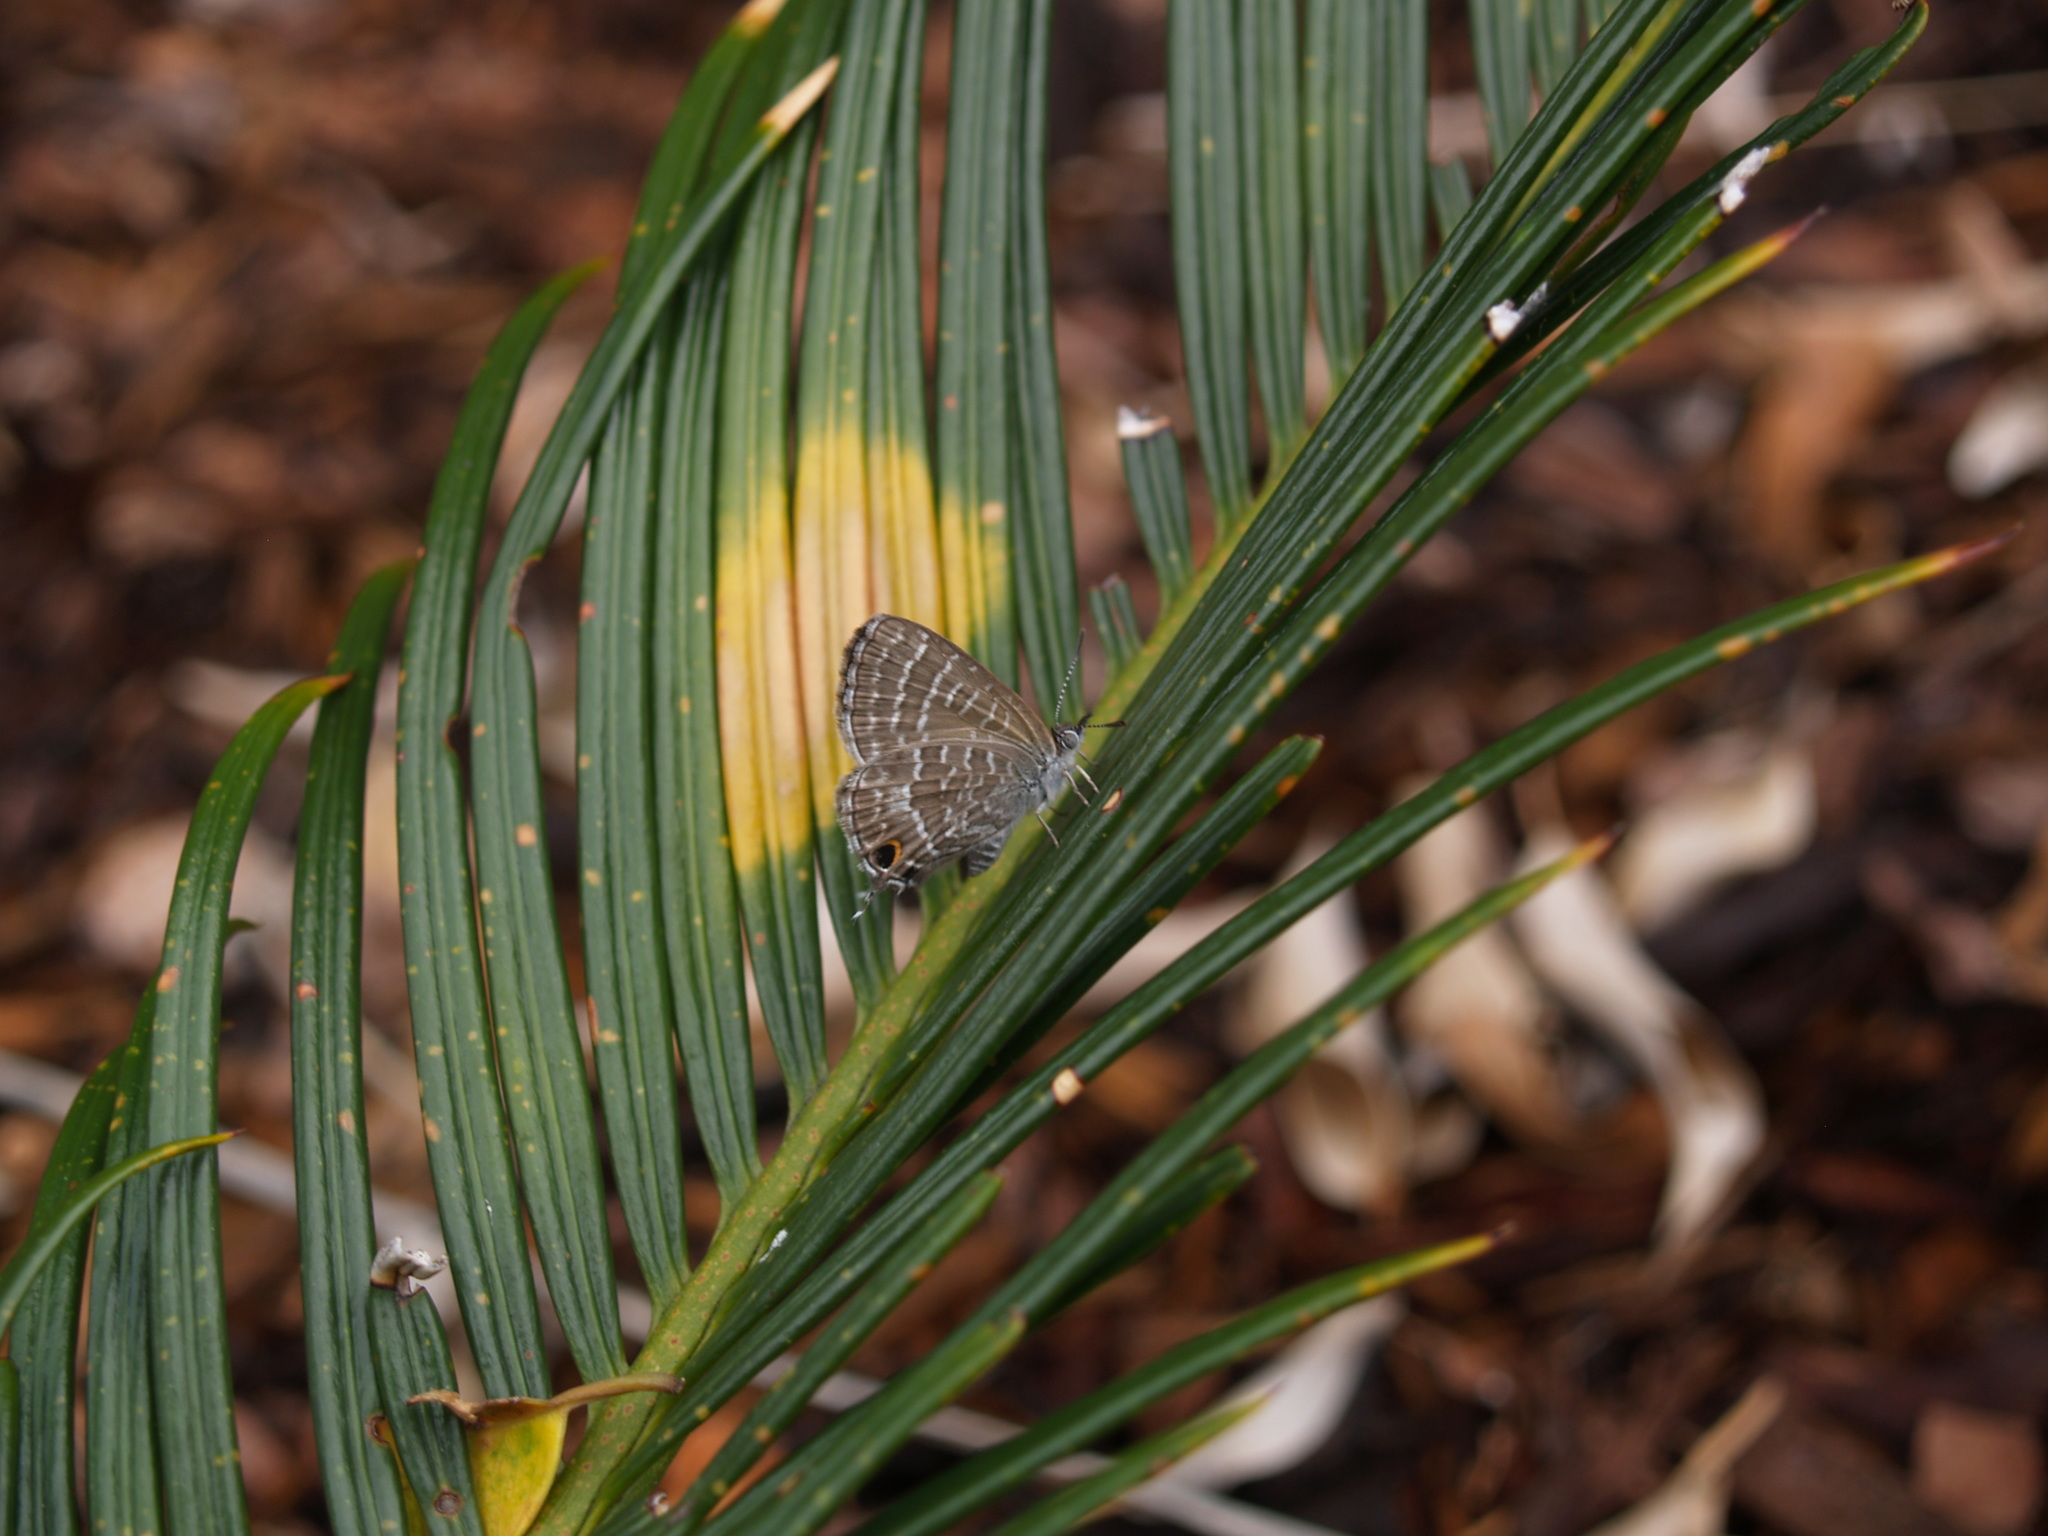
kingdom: Animalia
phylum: Arthropoda
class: Insecta
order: Lepidoptera
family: Lycaenidae
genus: Theclinesthes
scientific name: Theclinesthes onycha
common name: Cycad blue
